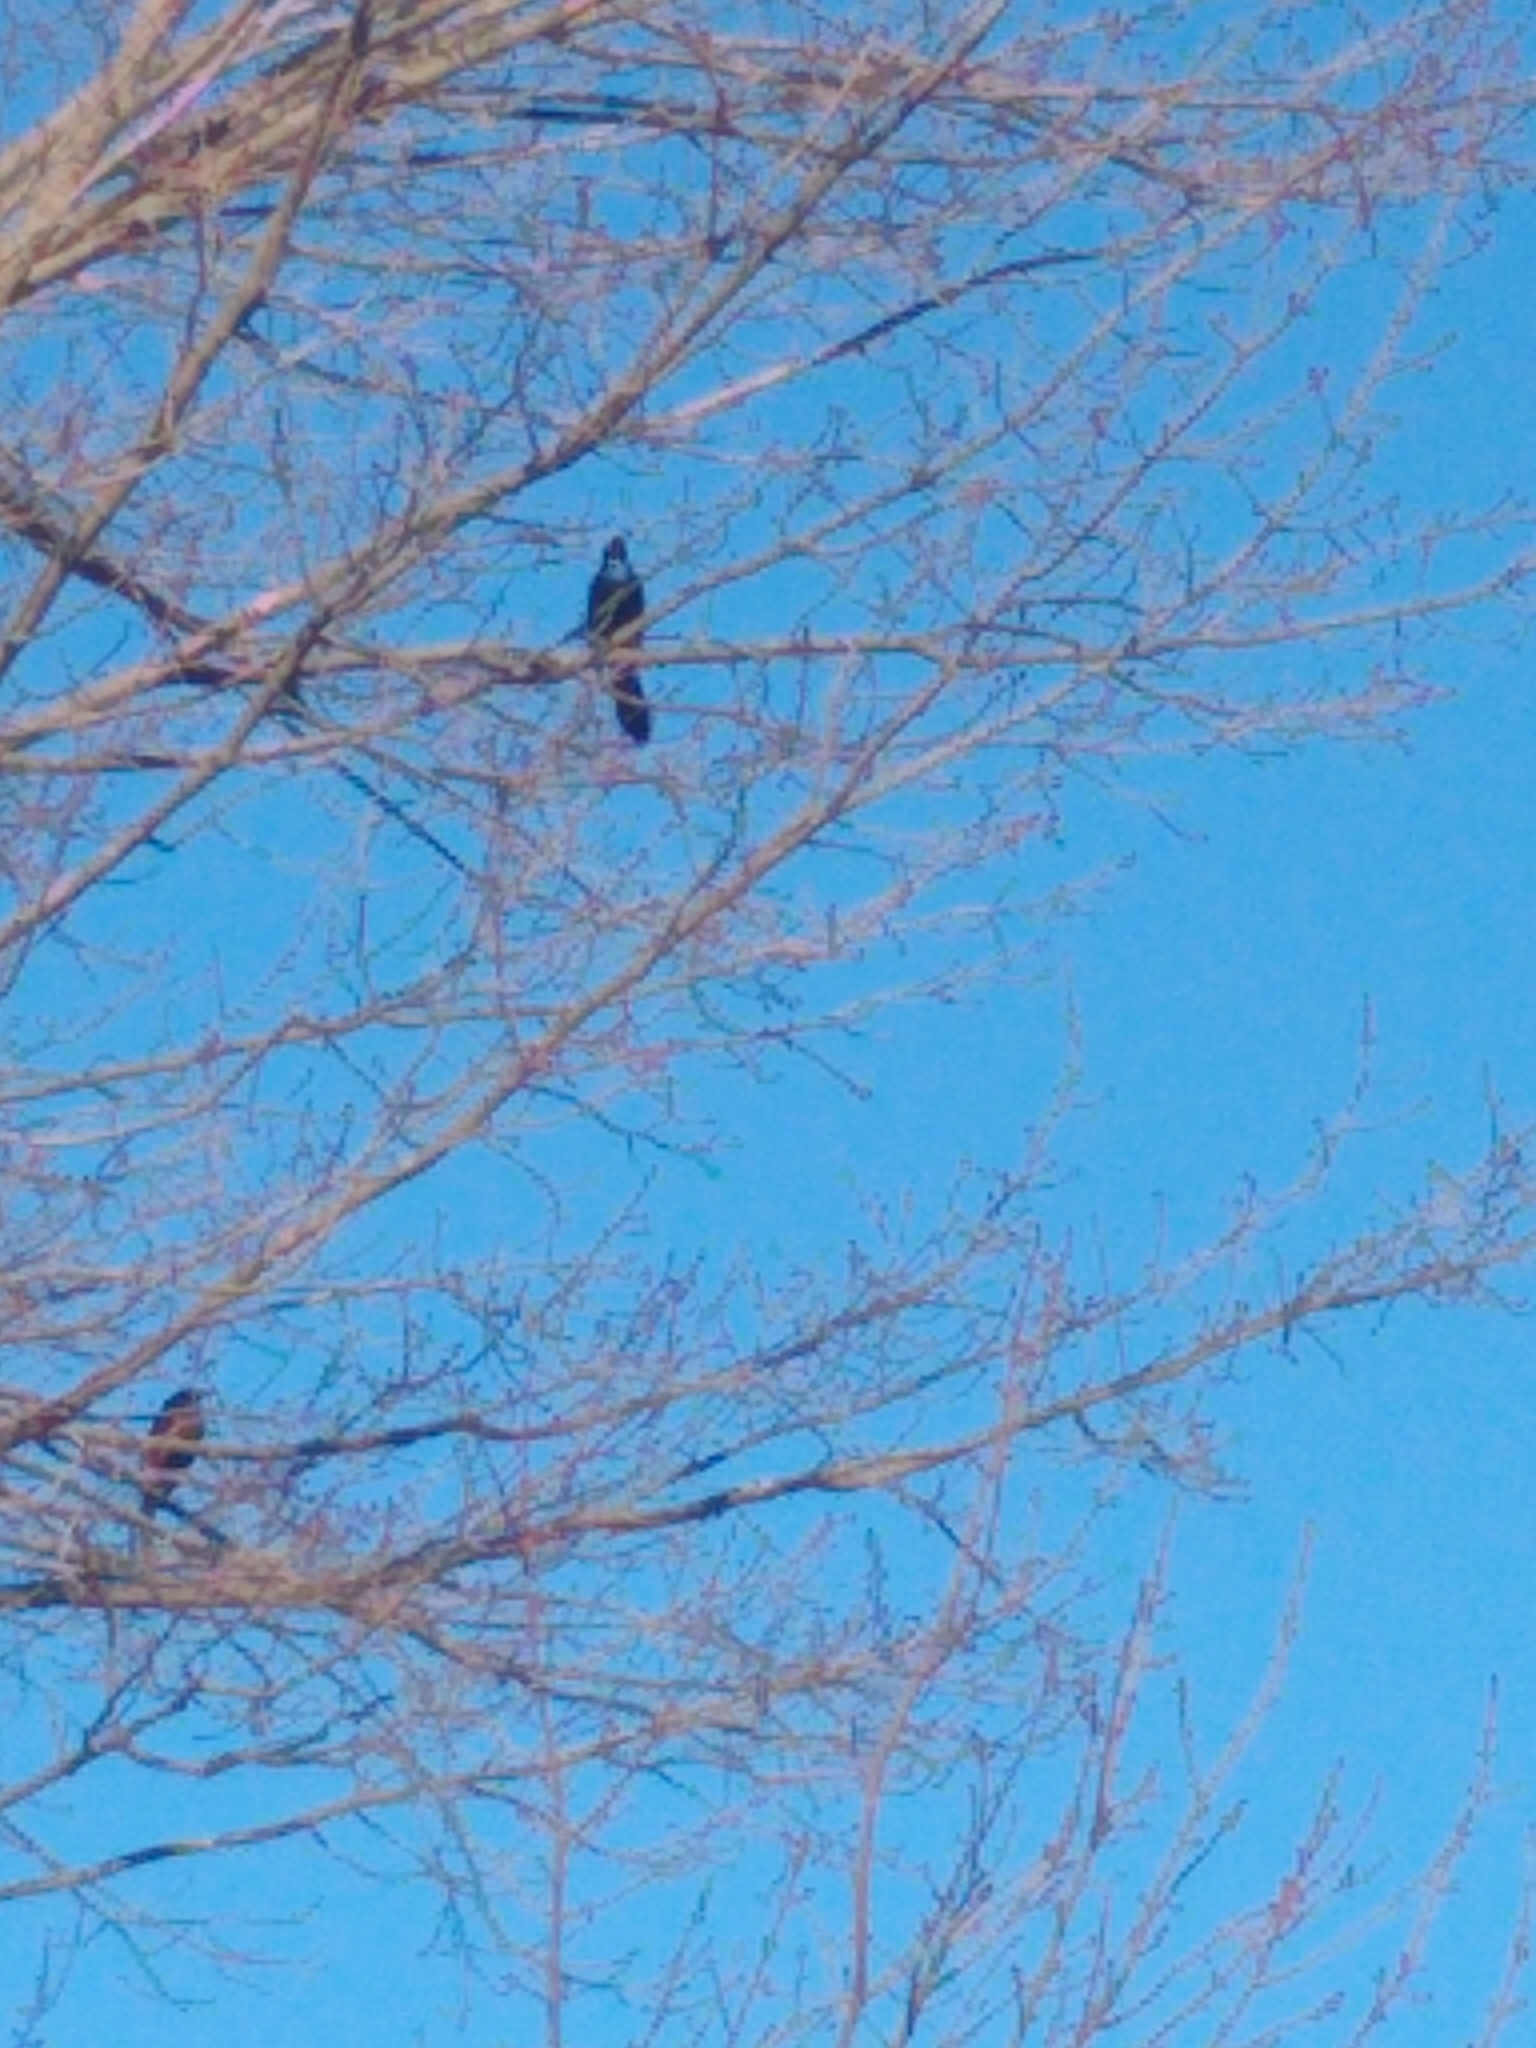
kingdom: Animalia
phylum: Chordata
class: Aves
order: Passeriformes
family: Icteridae
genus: Quiscalus
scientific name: Quiscalus quiscula
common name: Common grackle
